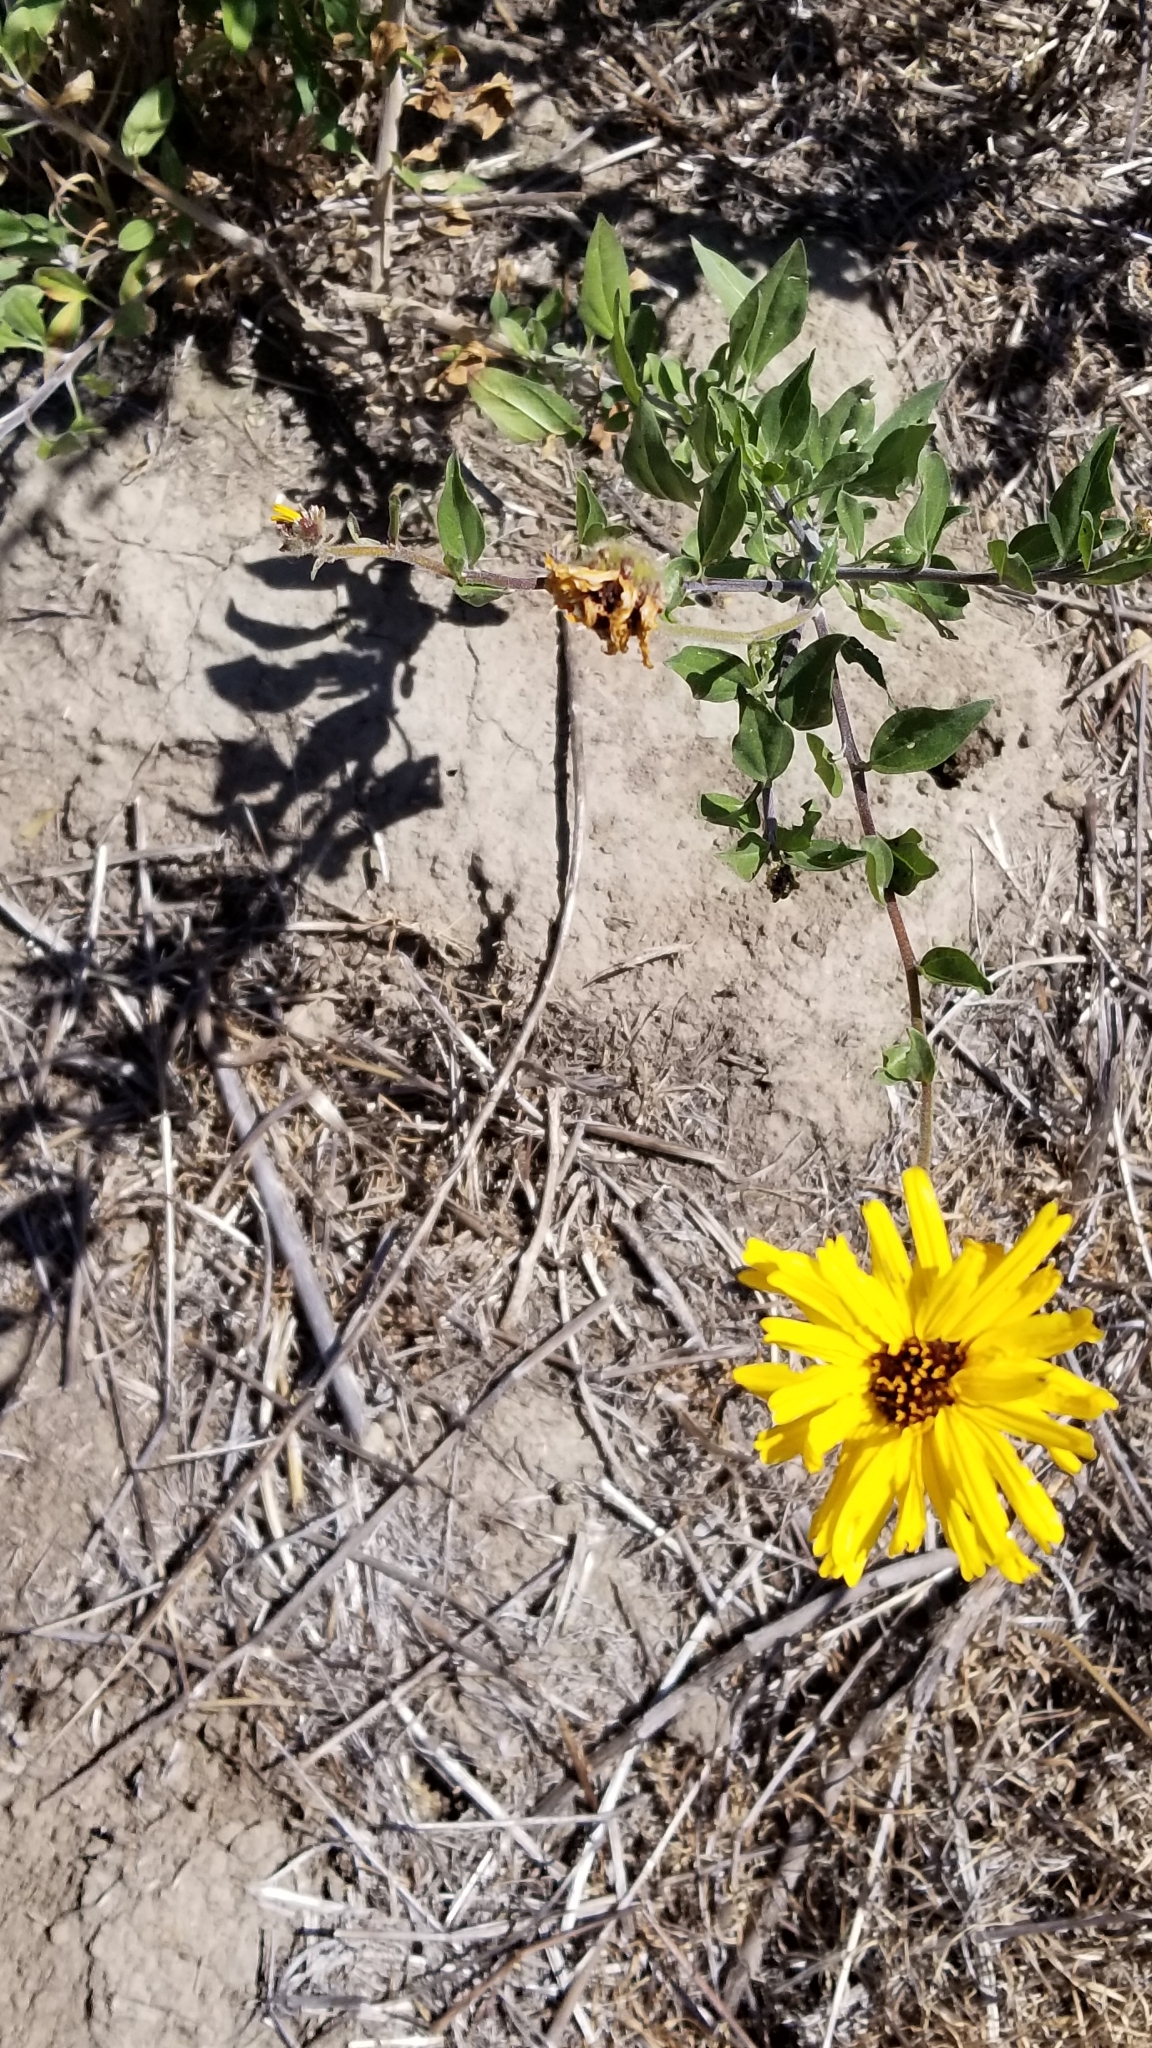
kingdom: Plantae
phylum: Tracheophyta
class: Magnoliopsida
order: Asterales
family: Asteraceae
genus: Encelia
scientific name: Encelia californica
